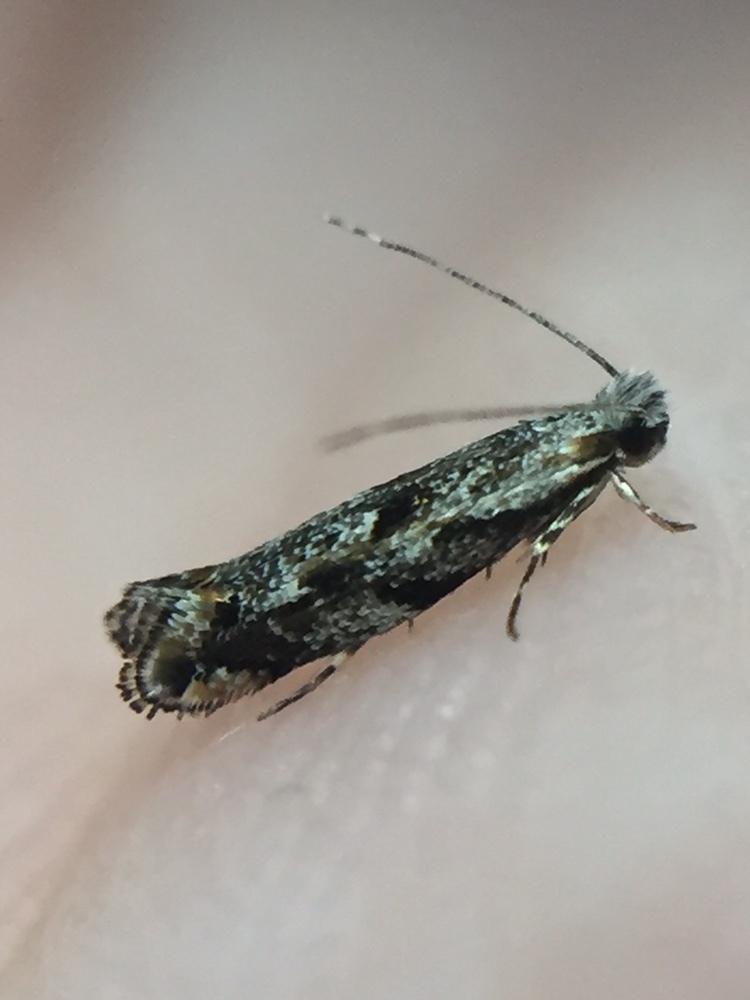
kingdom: Animalia
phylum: Arthropoda
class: Insecta
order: Lepidoptera
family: Tineidae
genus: Erechthias
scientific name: Erechthias crypsimima
